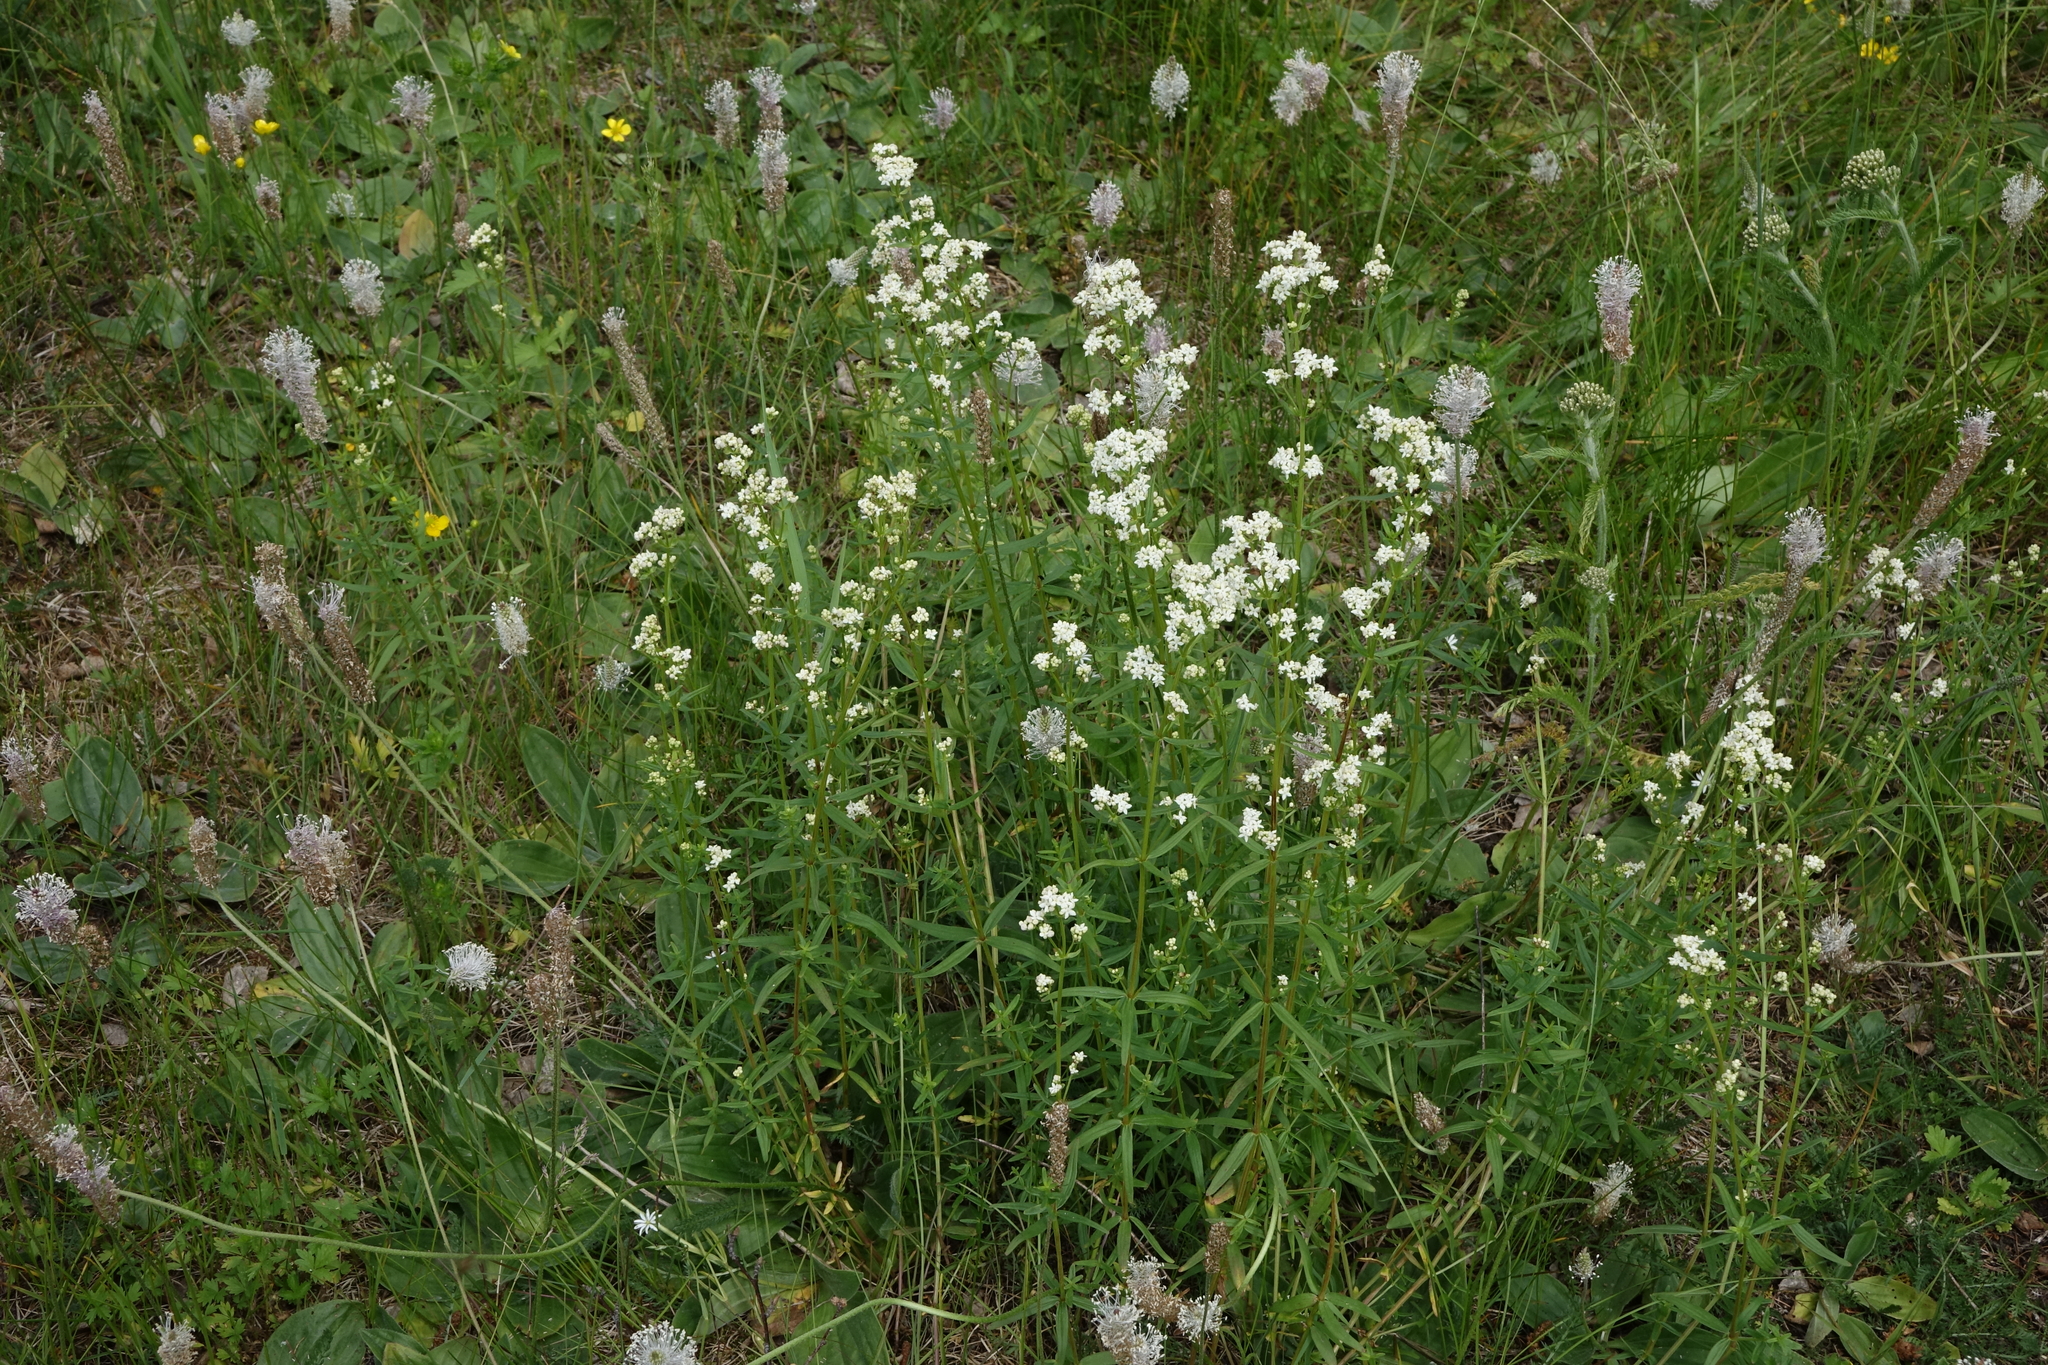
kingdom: Plantae
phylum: Tracheophyta
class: Magnoliopsida
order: Gentianales
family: Rubiaceae
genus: Galium
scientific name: Galium boreale
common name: Northern bedstraw
